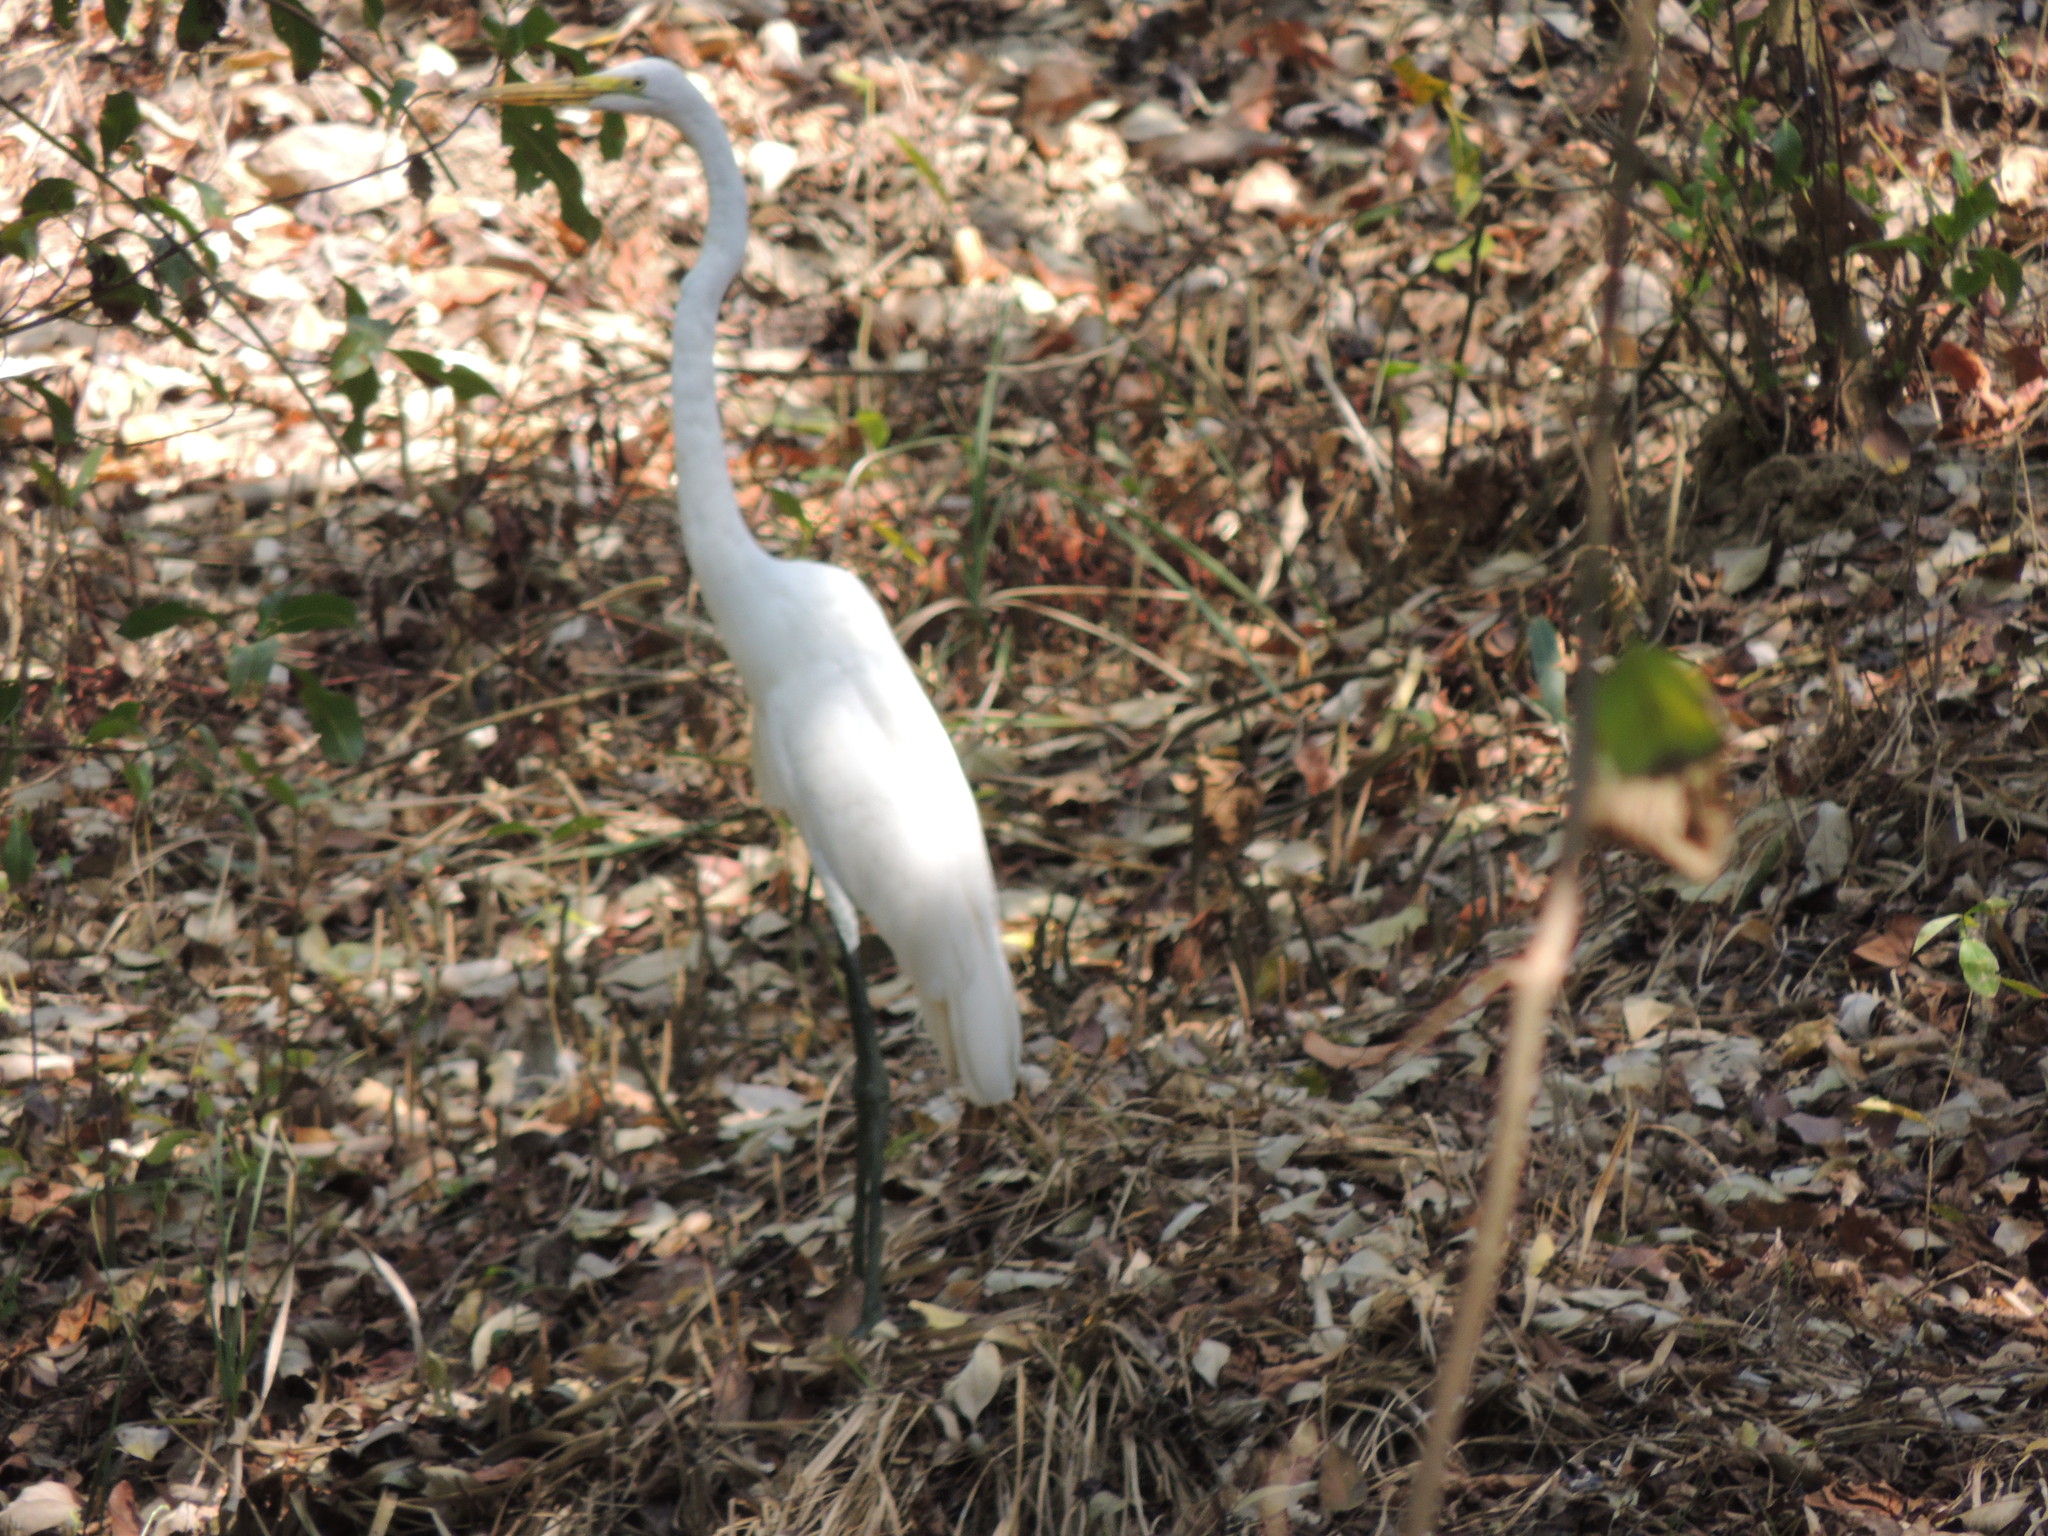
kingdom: Animalia
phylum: Chordata
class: Aves
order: Pelecaniformes
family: Ardeidae
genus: Ardea
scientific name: Ardea alba
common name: Great egret
